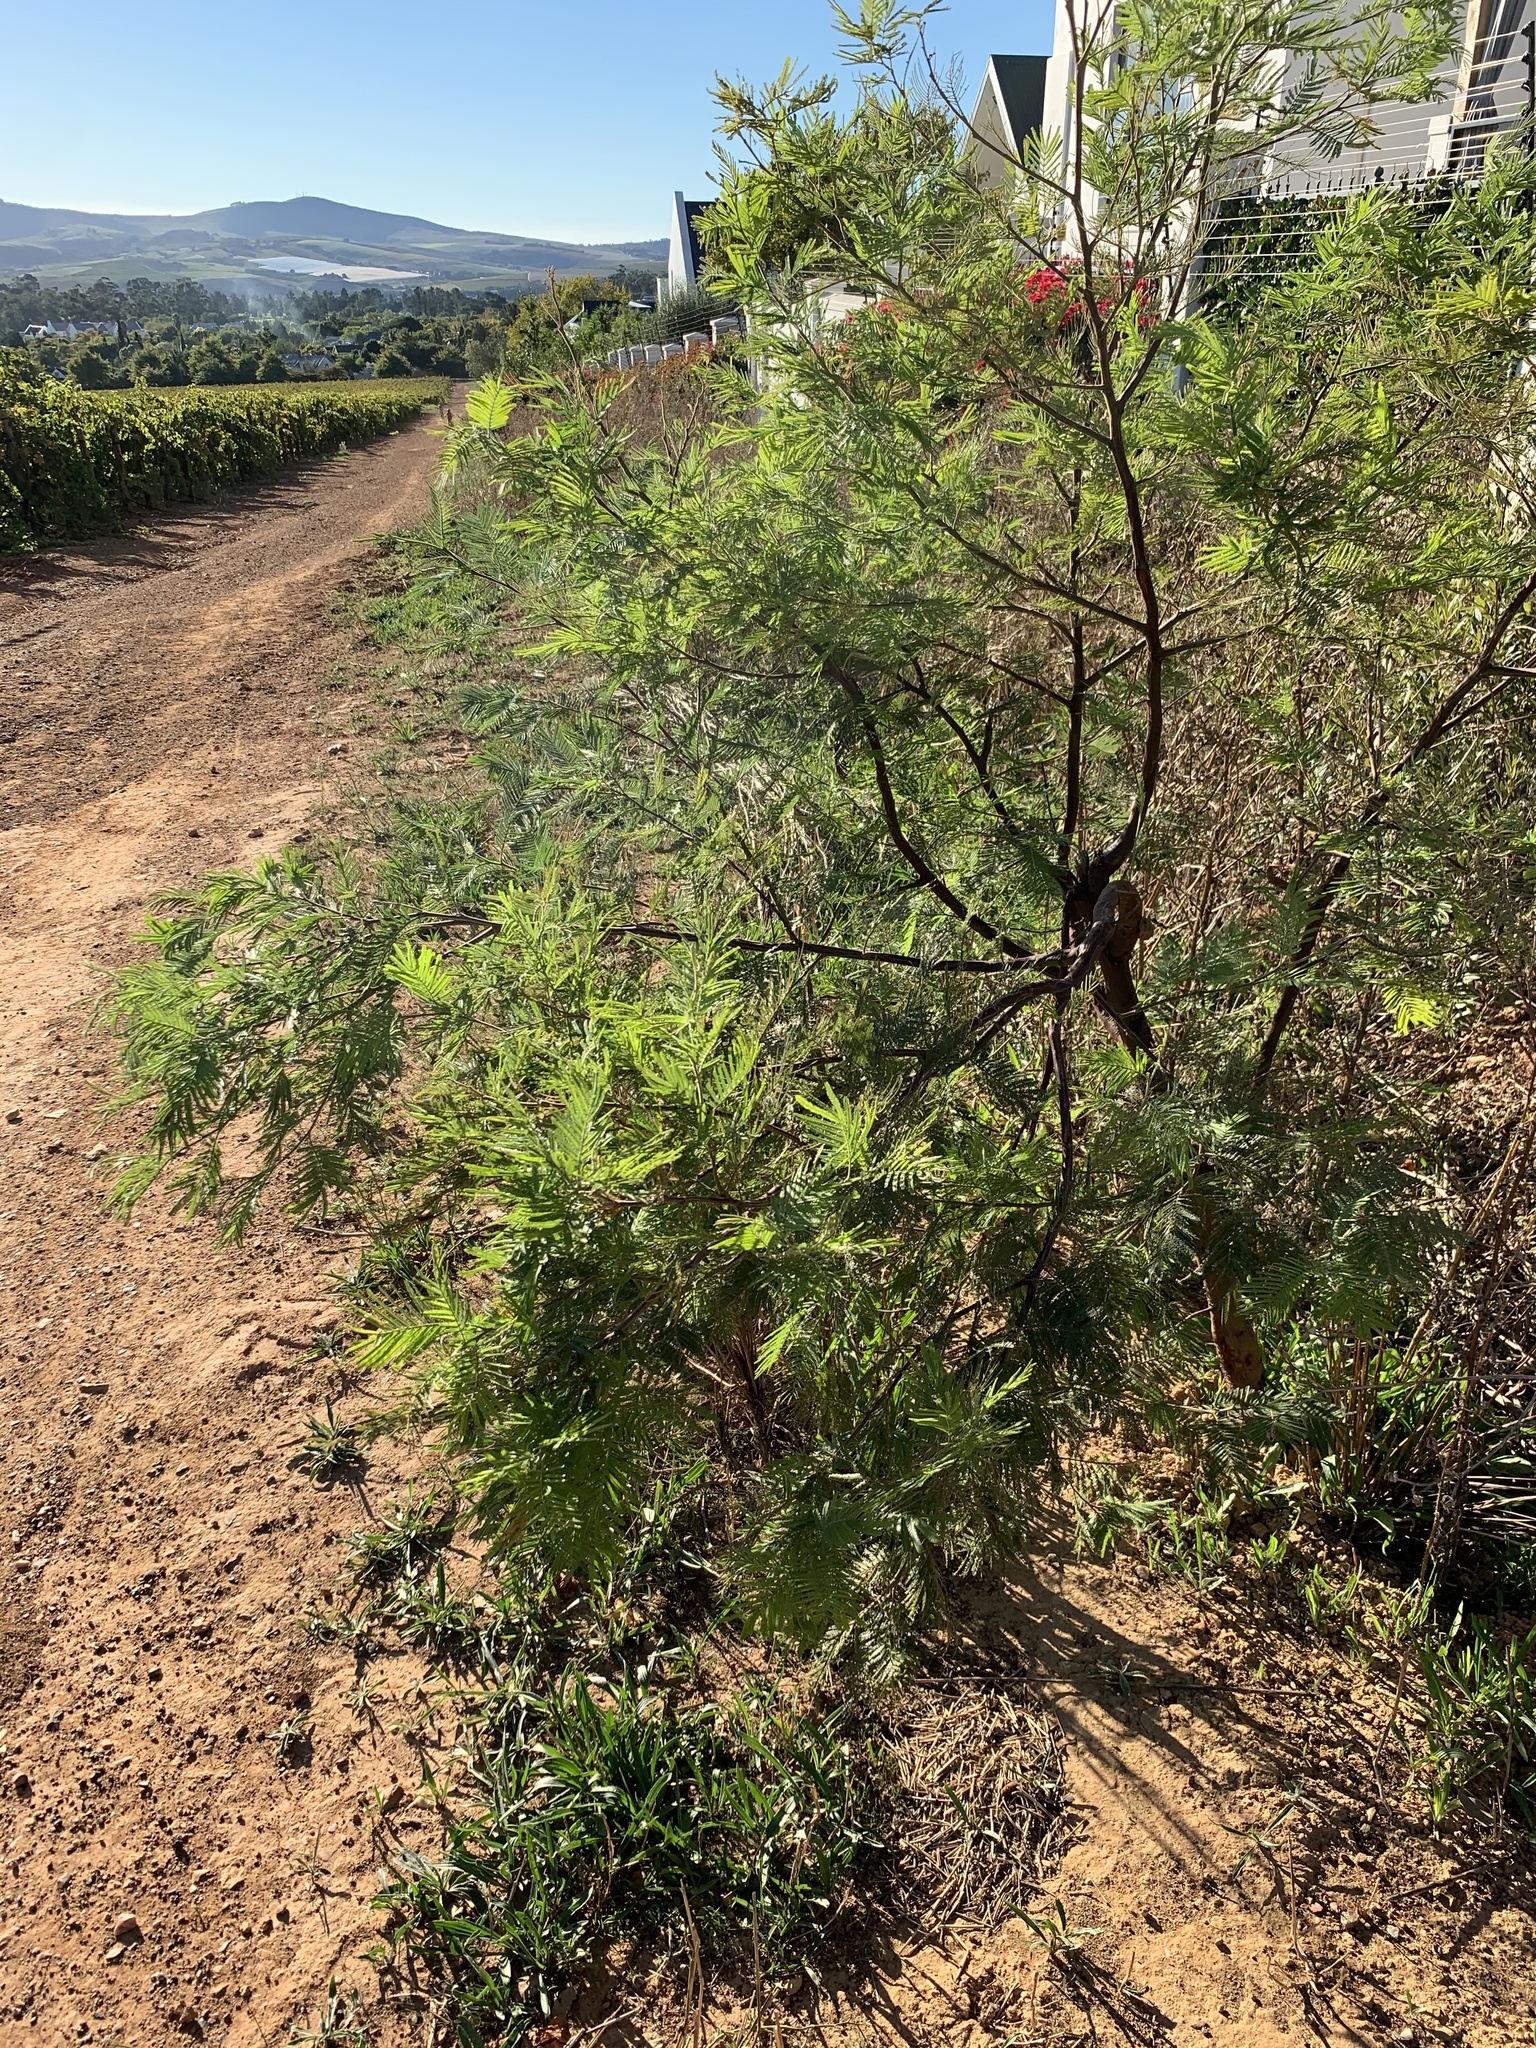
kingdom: Plantae
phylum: Tracheophyta
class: Magnoliopsida
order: Fabales
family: Fabaceae
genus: Acacia
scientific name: Acacia mearnsii
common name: Black wattle
